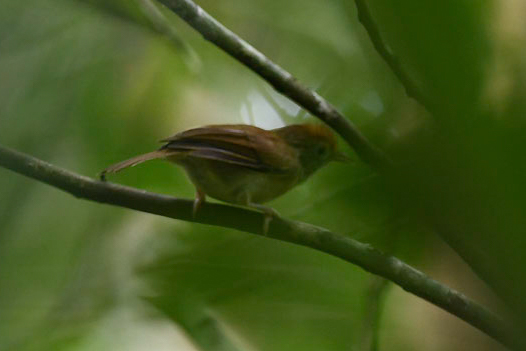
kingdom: Animalia
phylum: Chordata
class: Aves
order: Passeriformes
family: Vireonidae
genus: Hylophilus
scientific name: Hylophilus ochraceiceps
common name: Tawny-crowned greenlet
